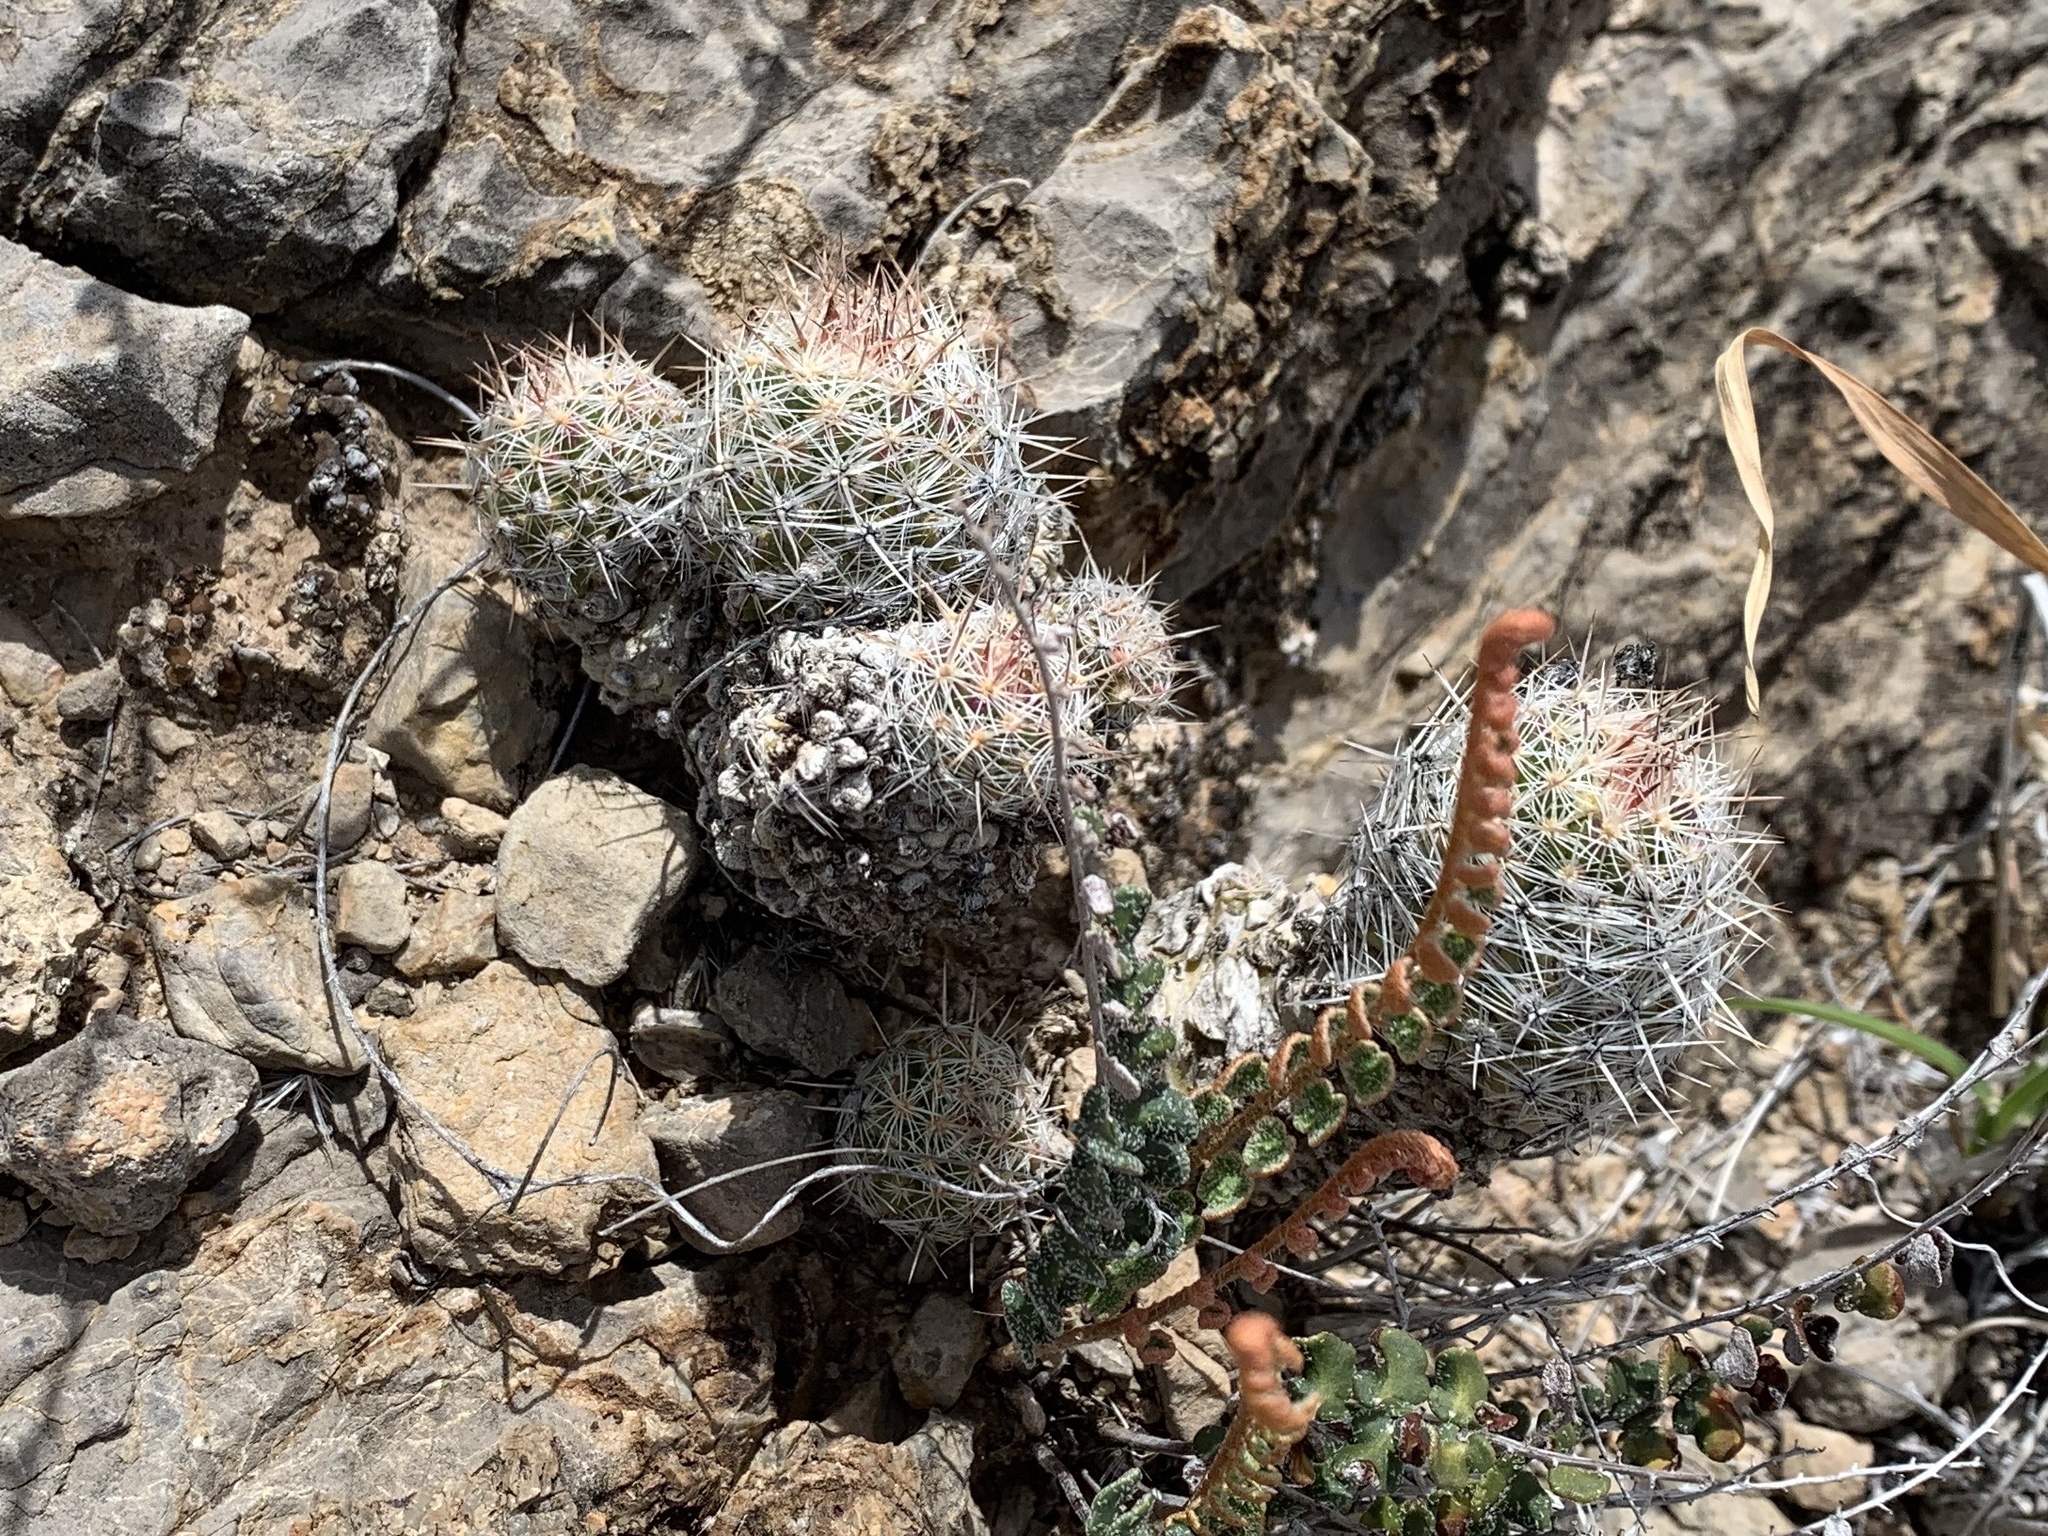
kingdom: Plantae
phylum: Tracheophyta
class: Magnoliopsida
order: Caryophyllales
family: Cactaceae
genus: Pelecyphora
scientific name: Pelecyphora tuberculosa
